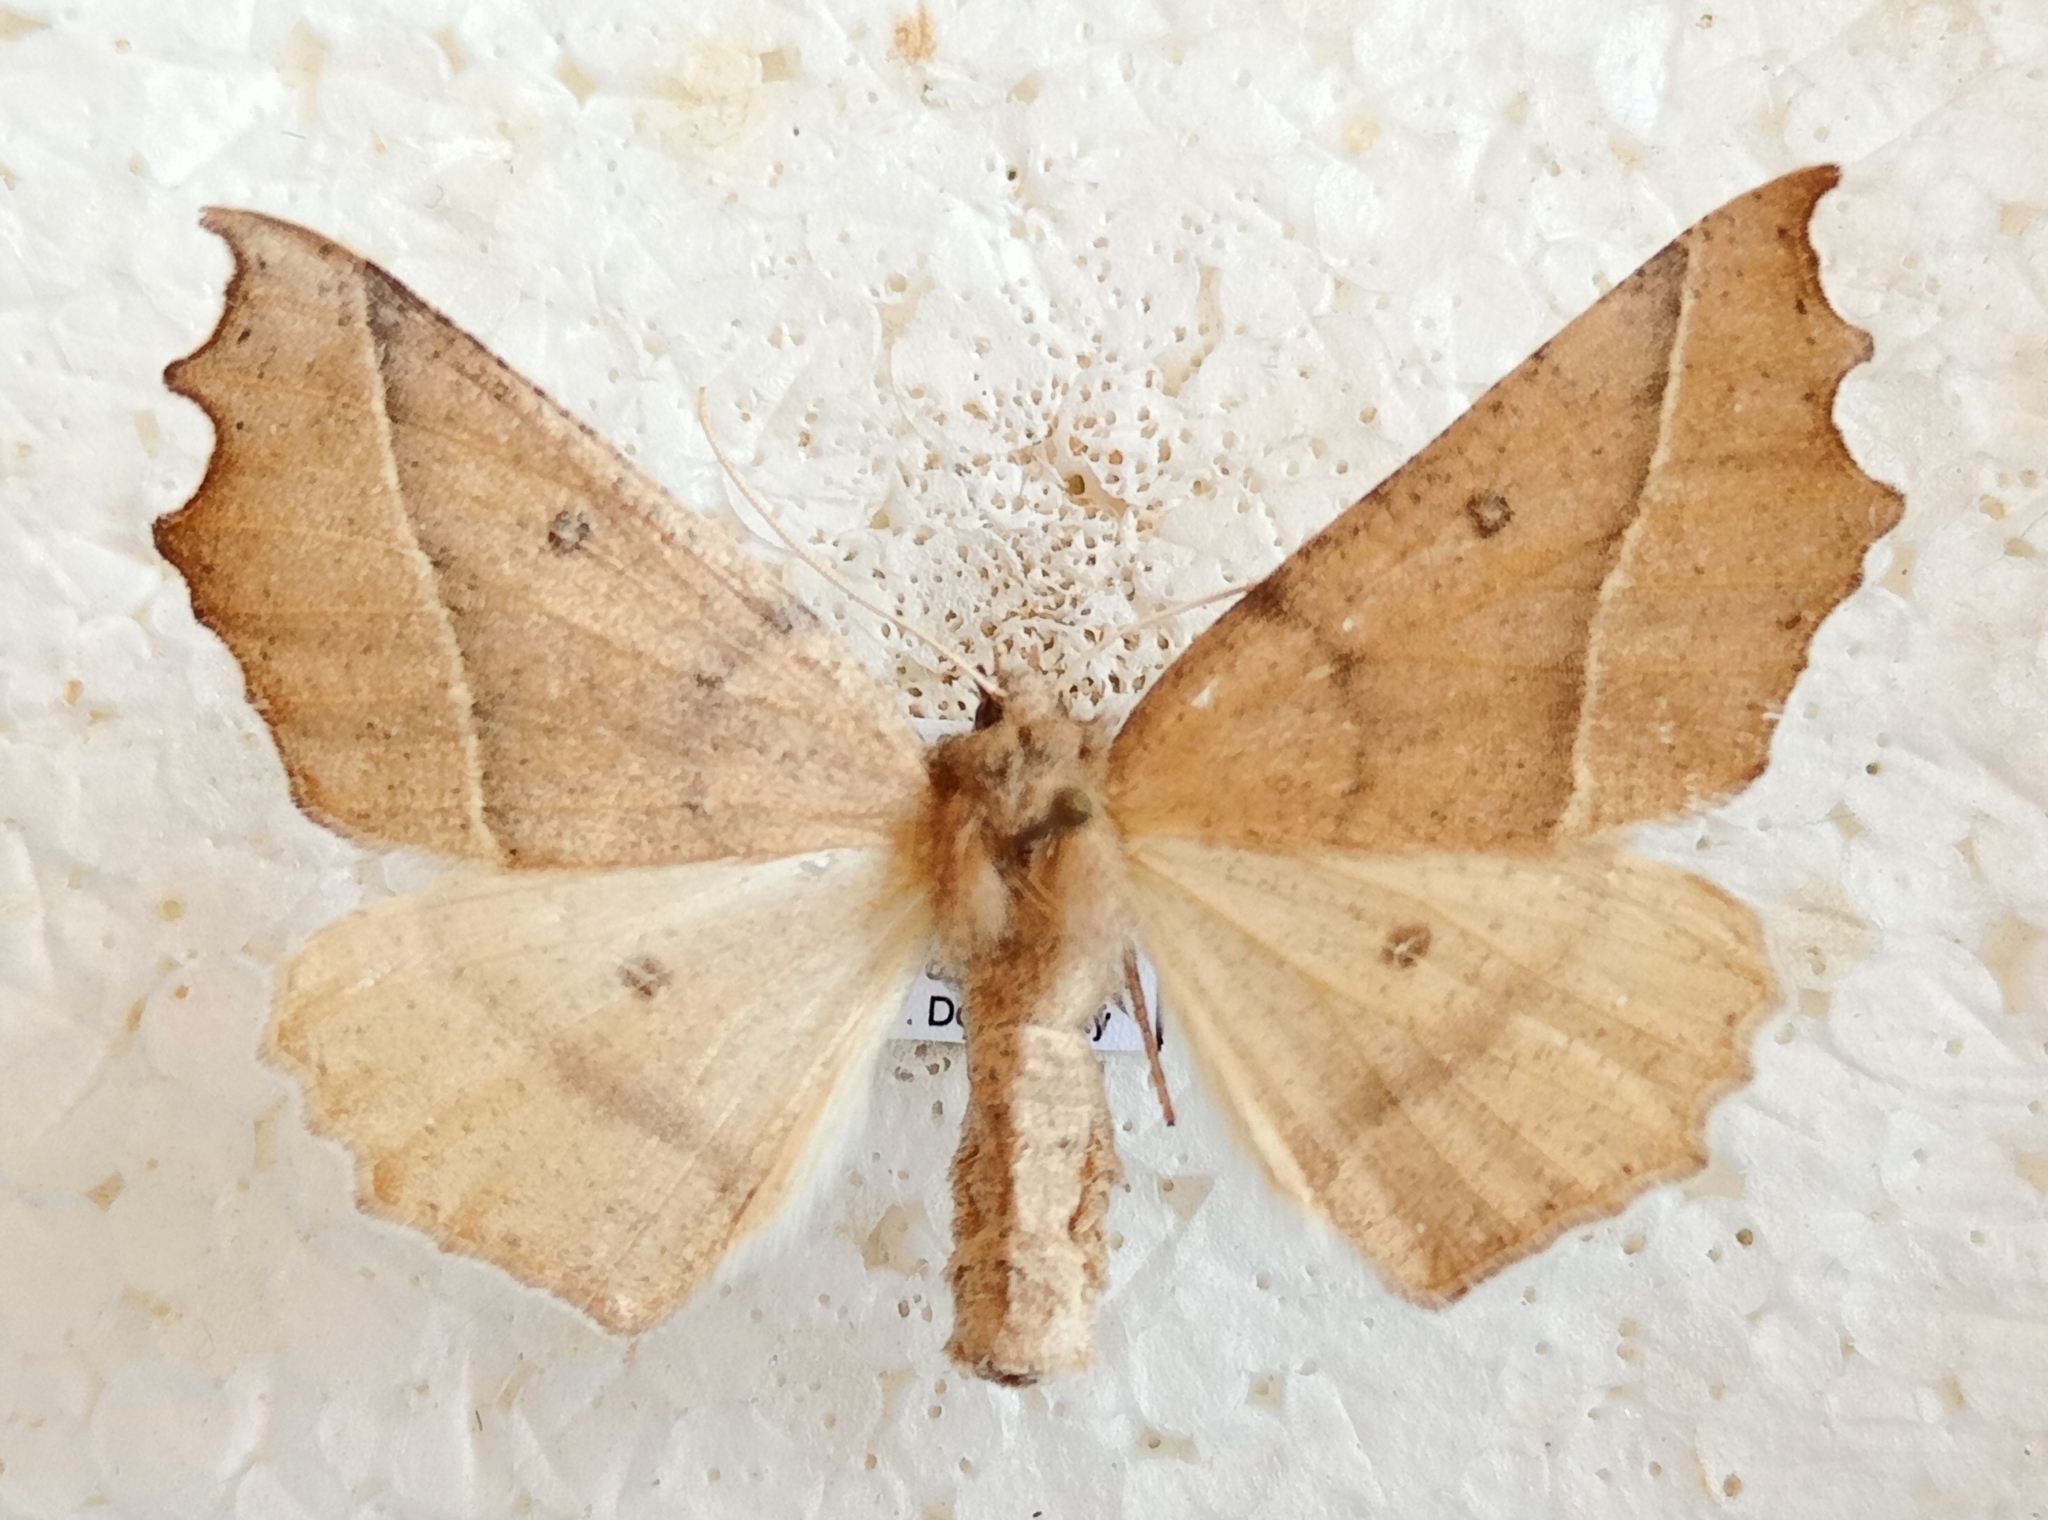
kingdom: Animalia
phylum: Arthropoda
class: Insecta
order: Lepidoptera
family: Geometridae
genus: Odontopera
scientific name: Odontopera muscularia
